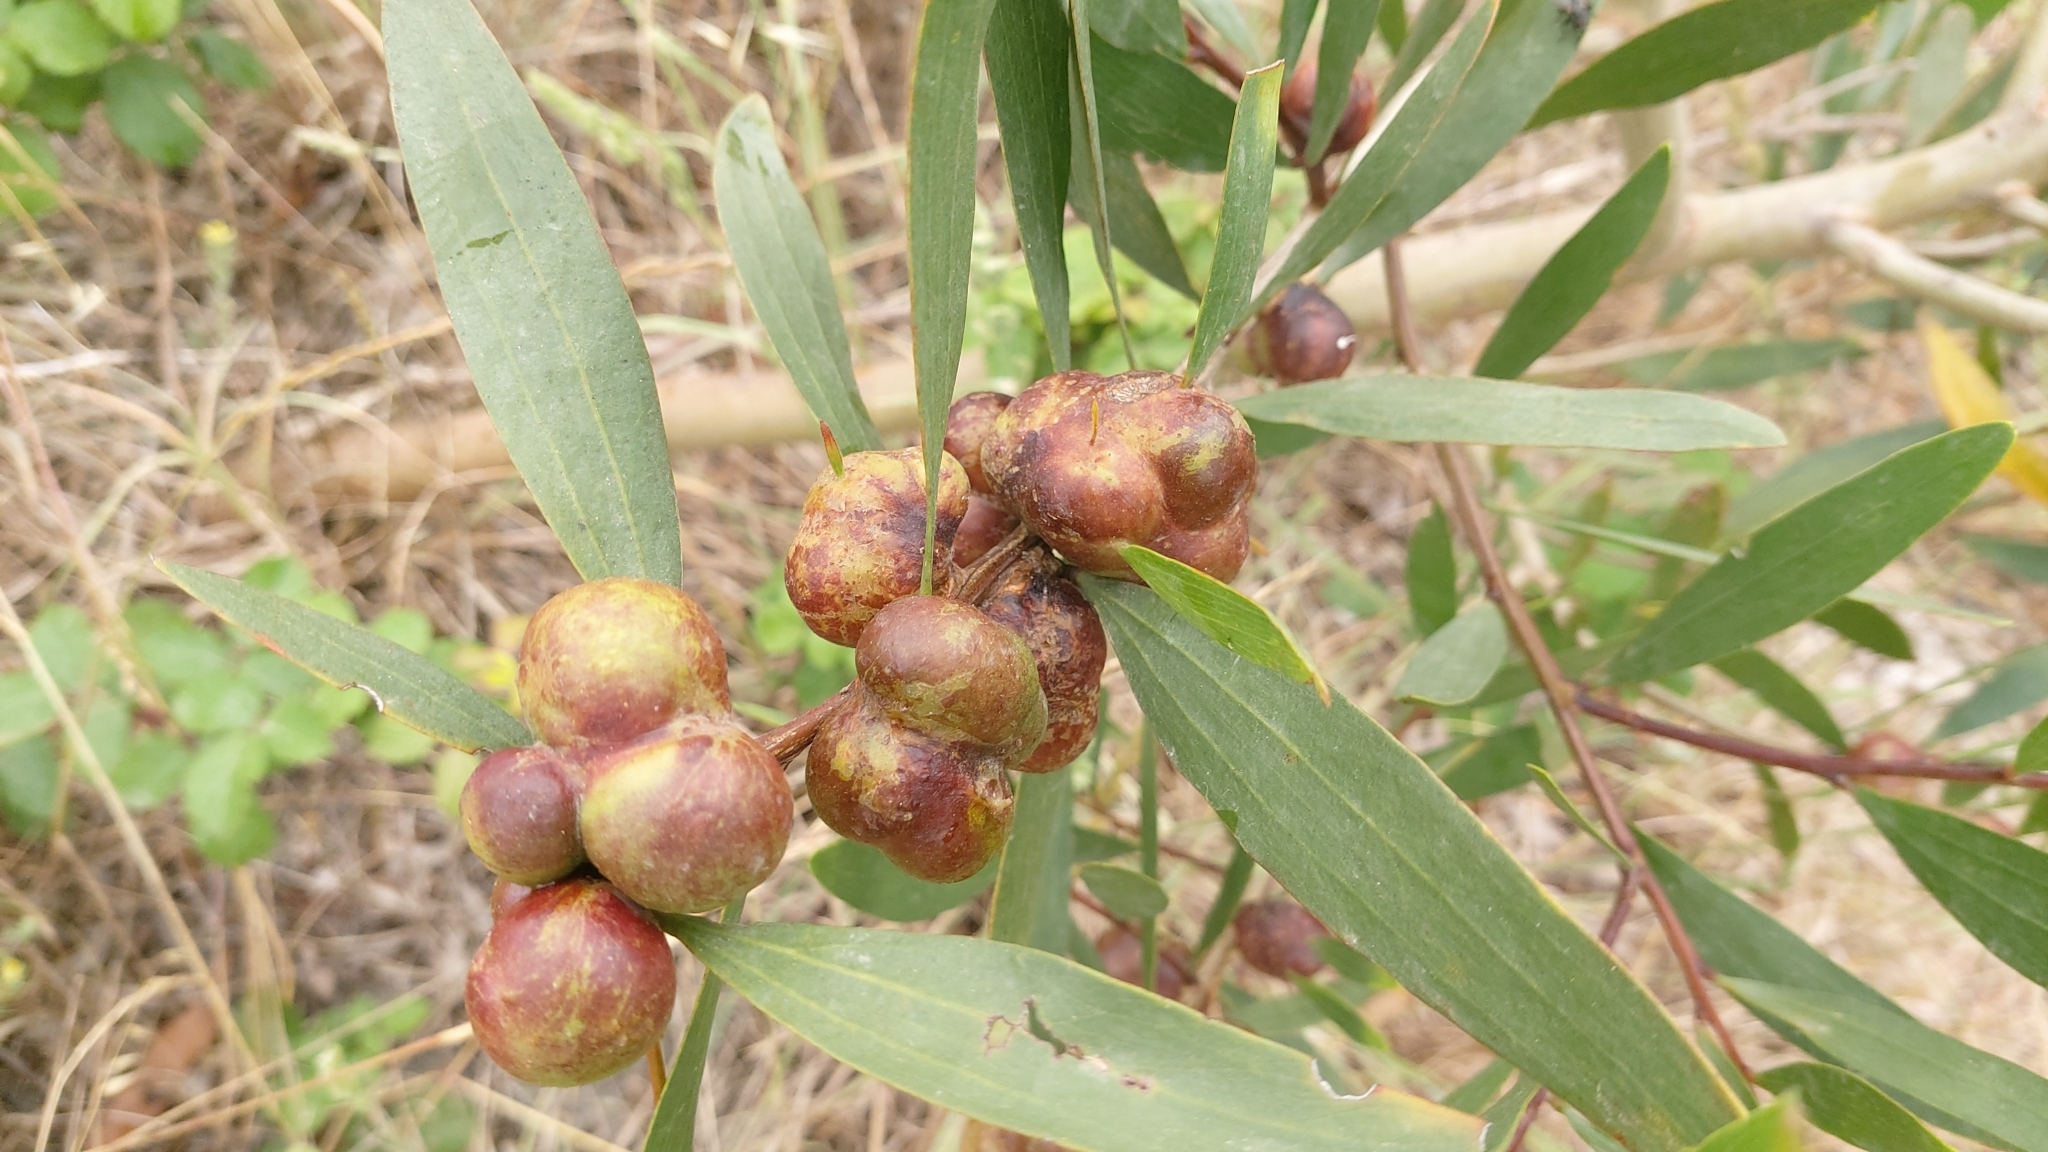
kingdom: Animalia
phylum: Arthropoda
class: Insecta
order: Hymenoptera
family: Pteromalidae
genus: Trichilogaster
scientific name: Trichilogaster acaciaelongifoliae
